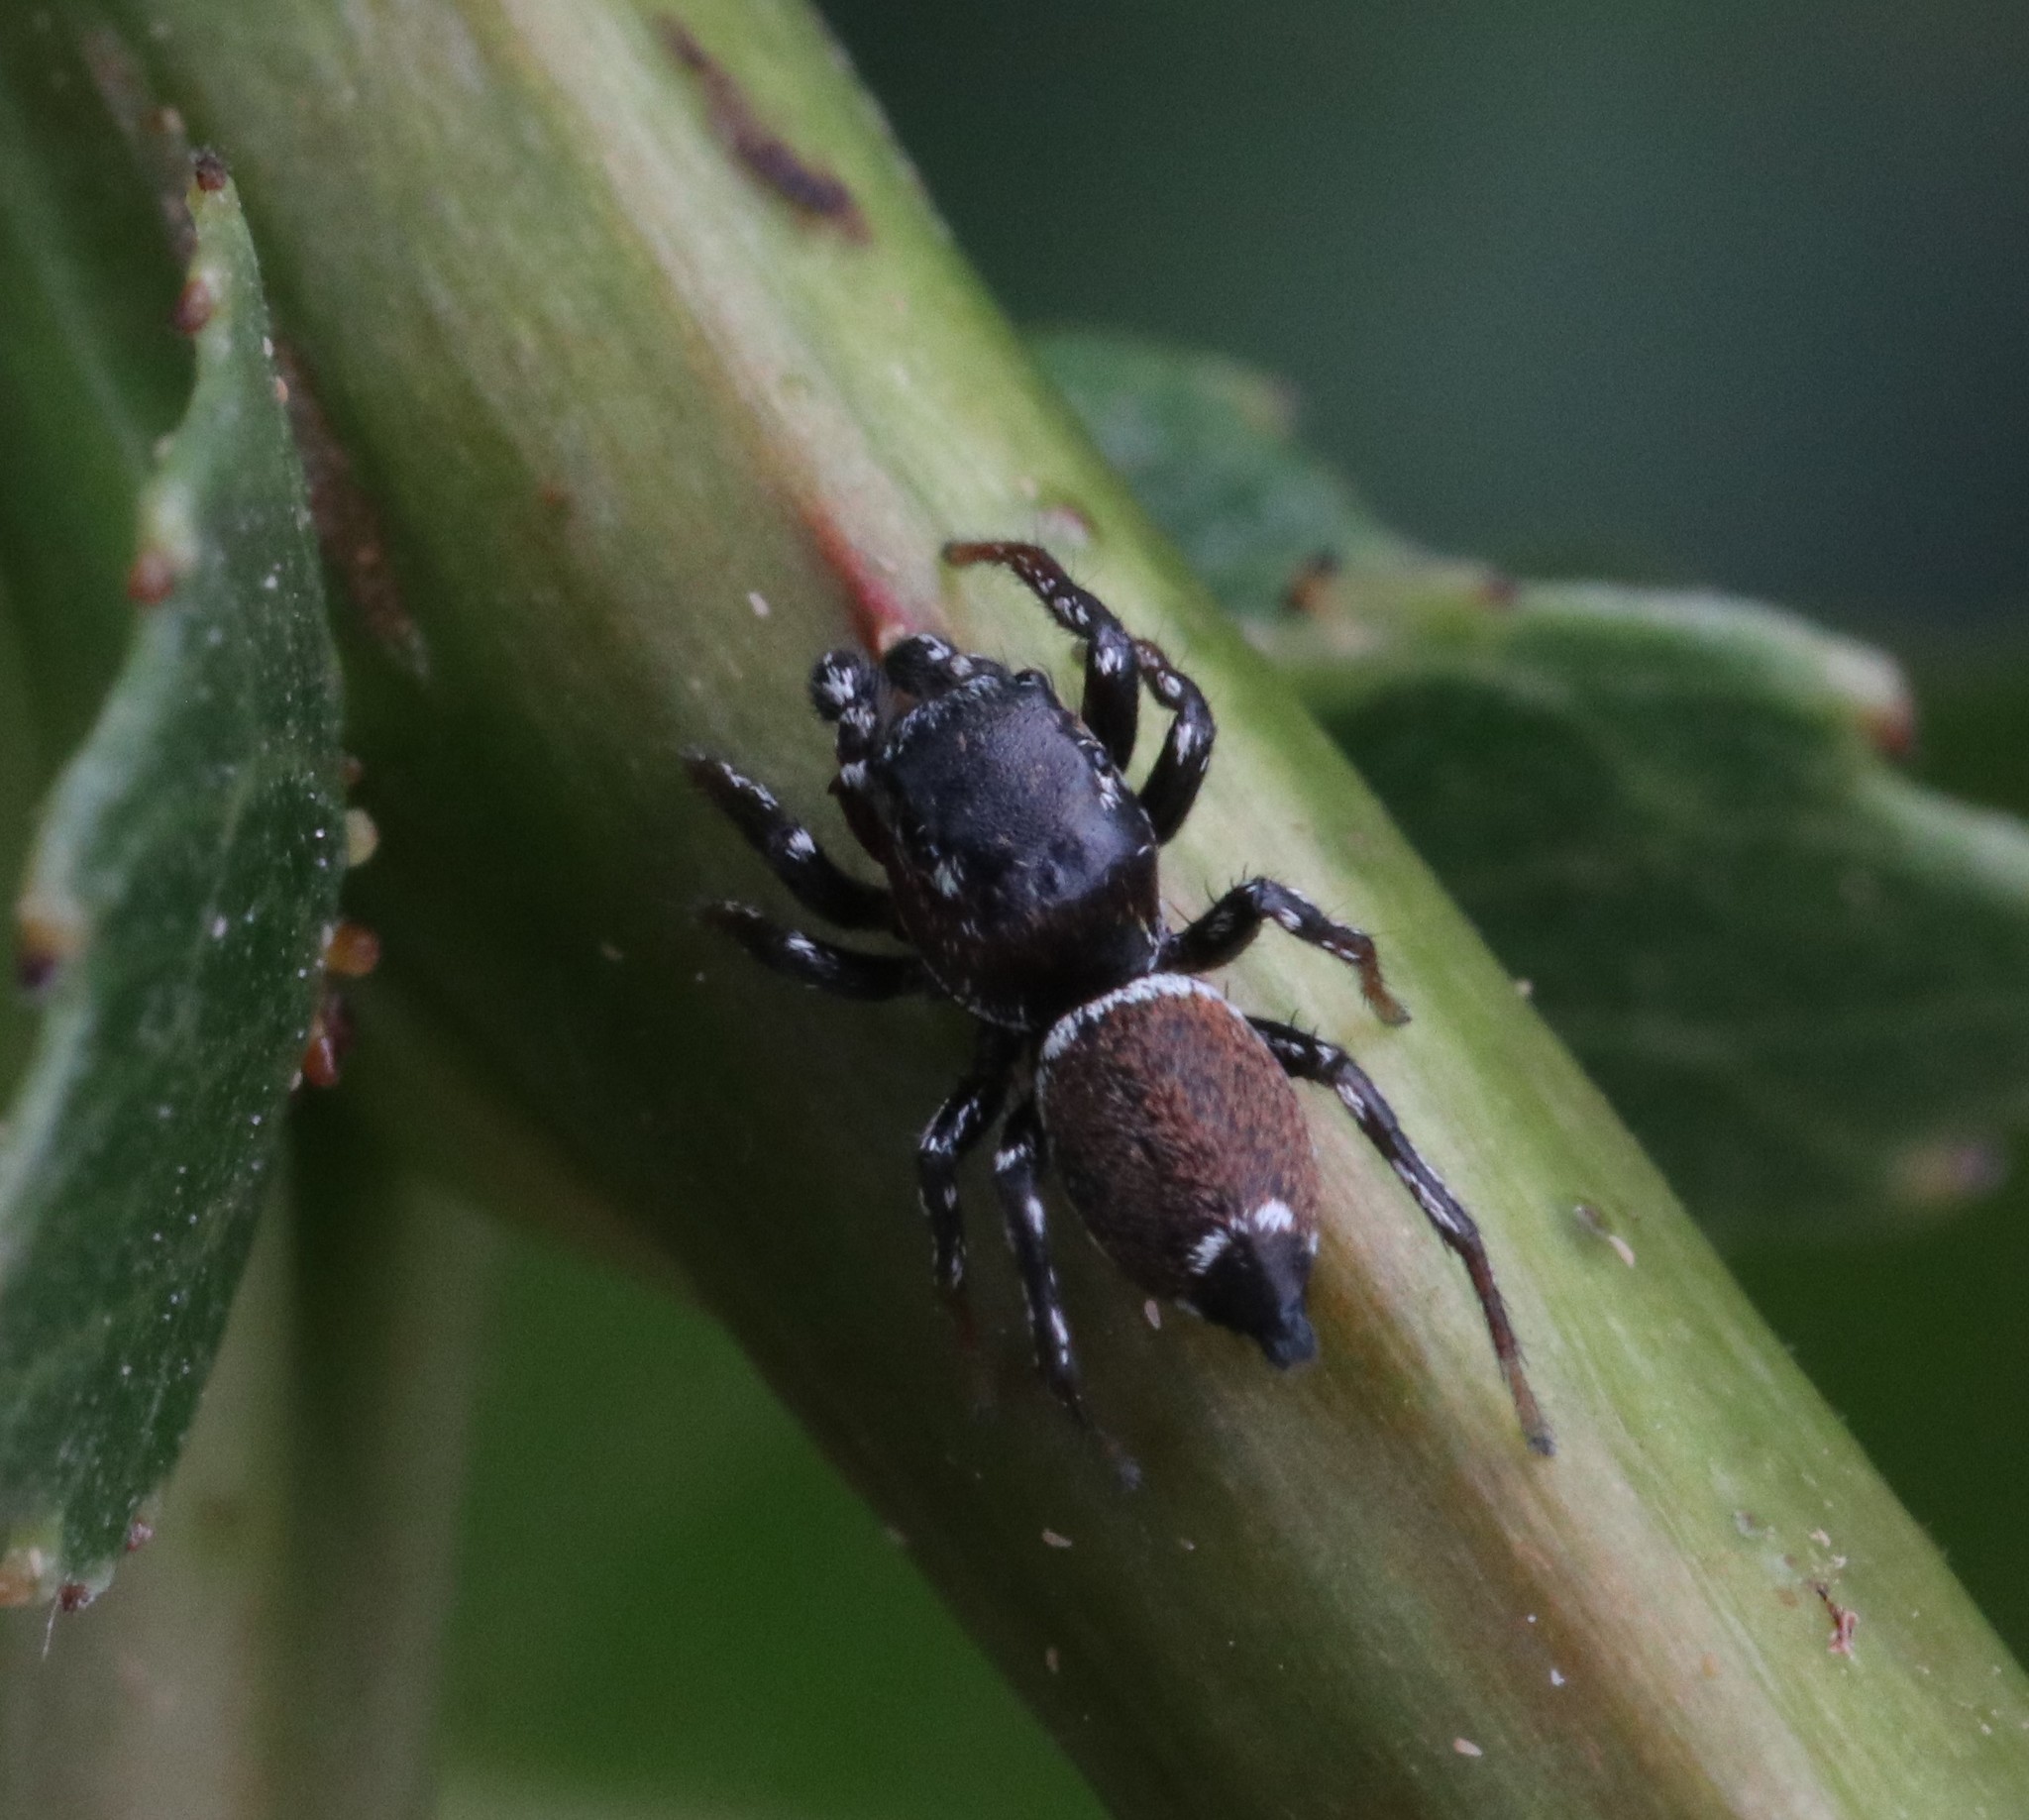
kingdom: Animalia
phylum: Arthropoda
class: Arachnida
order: Araneae
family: Salticidae
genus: Heliophanus
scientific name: Heliophanus tribulosus
